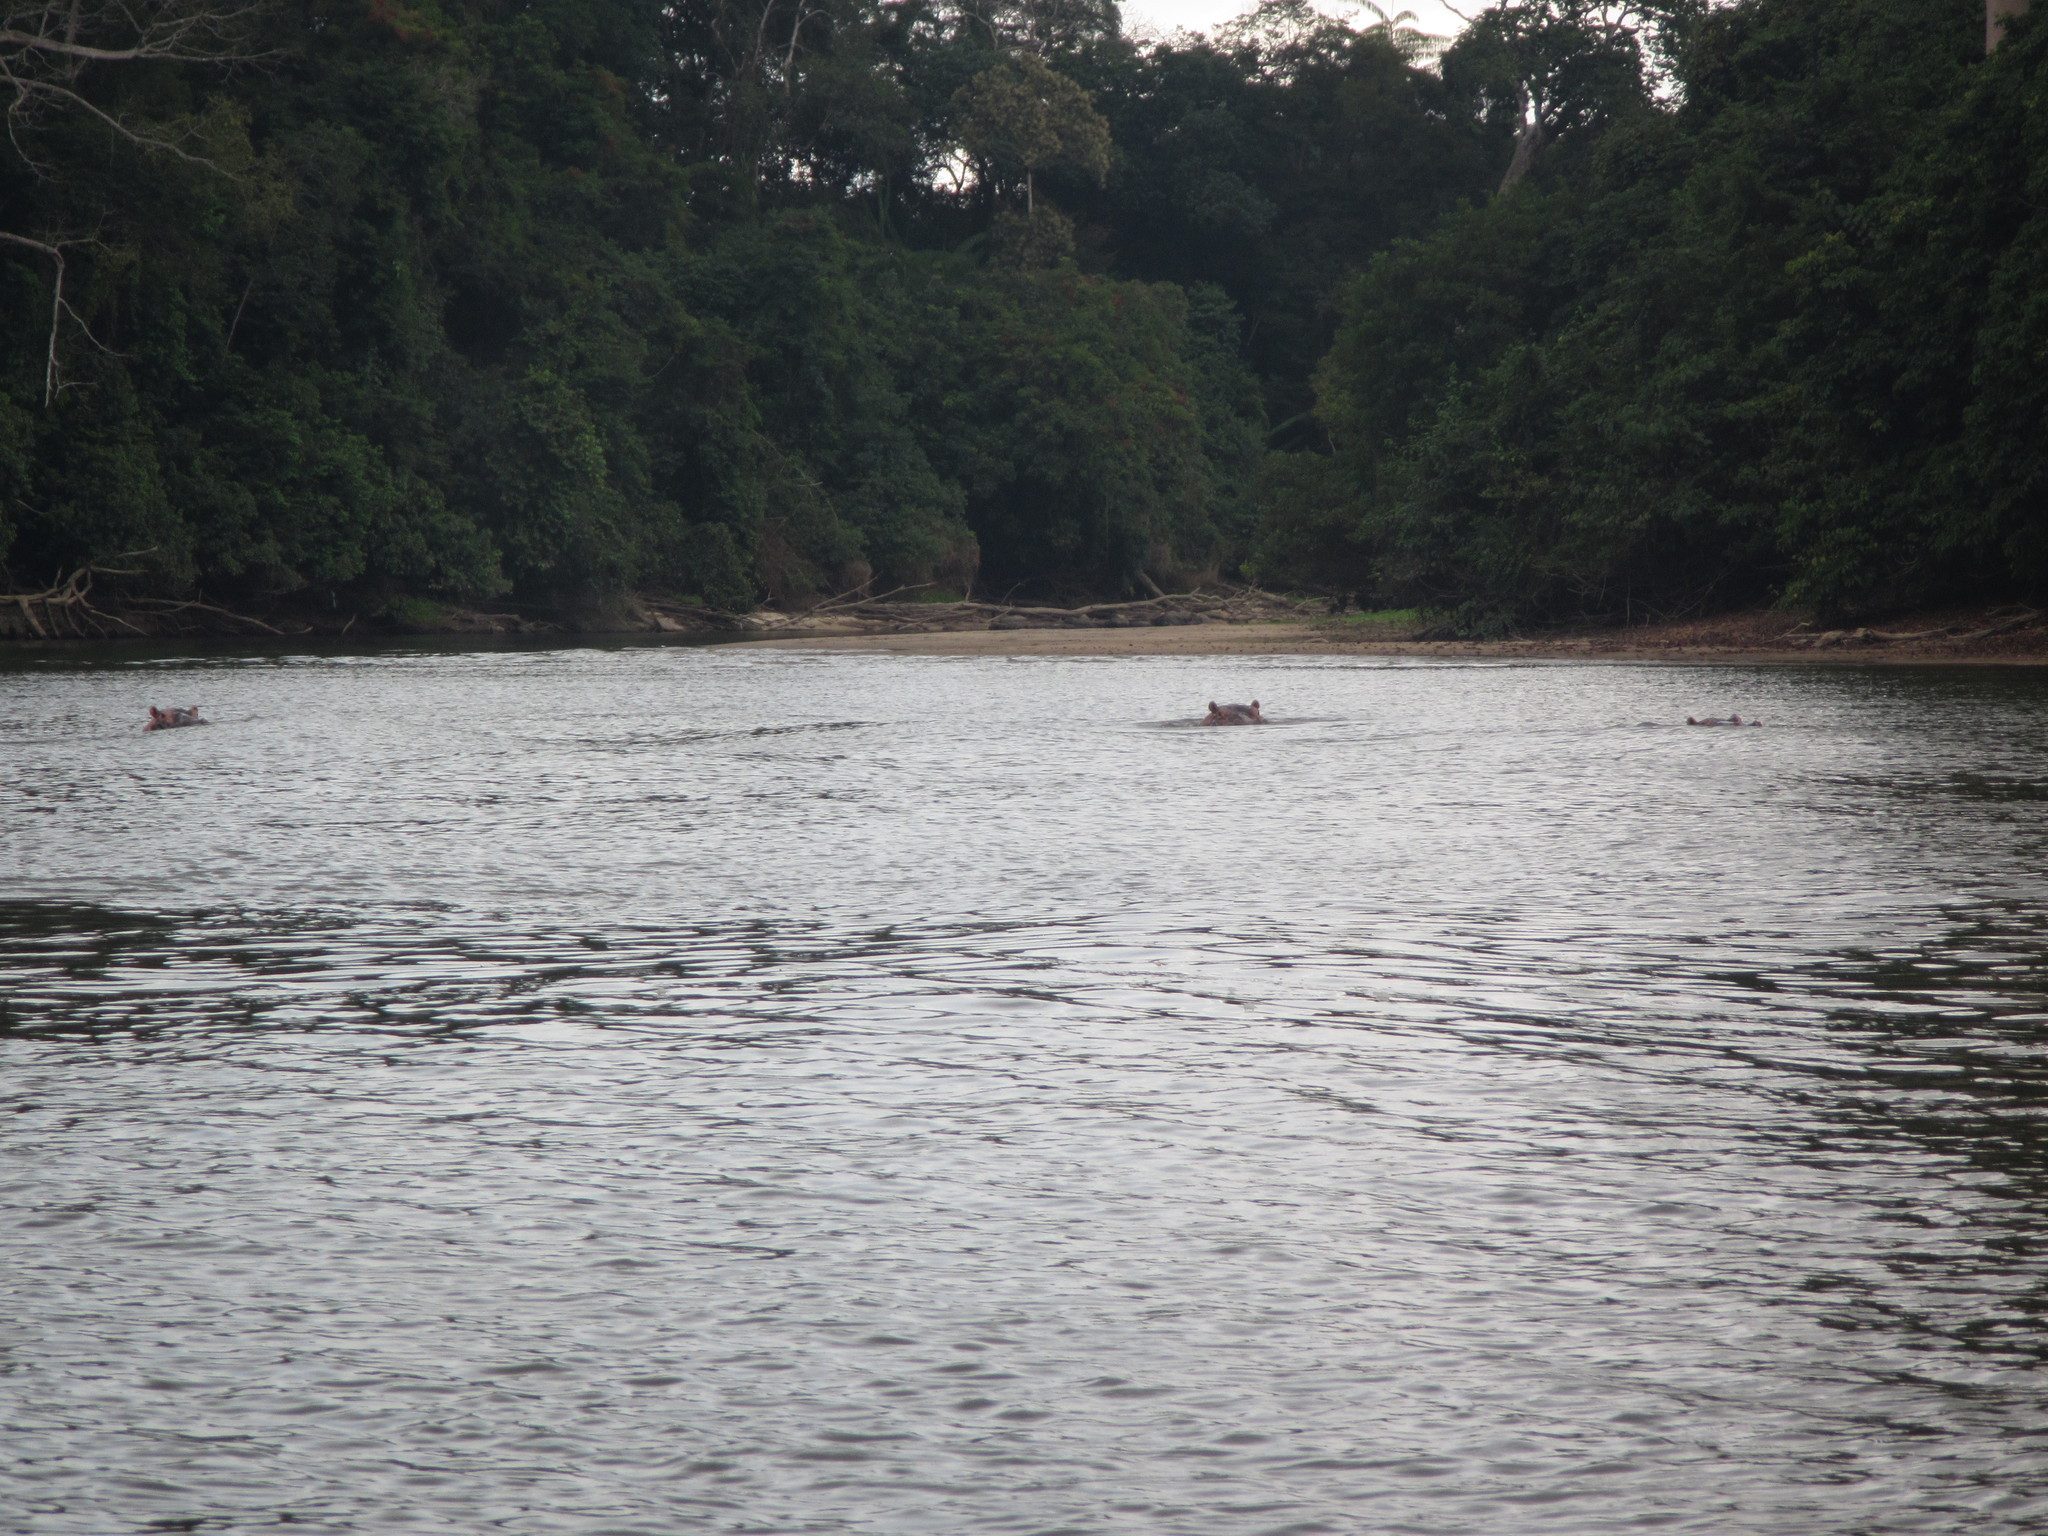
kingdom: Animalia
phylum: Chordata
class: Mammalia
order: Artiodactyla
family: Hippopotamidae
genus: Hippopotamus
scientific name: Hippopotamus amphibius
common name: Common hippopotamus
